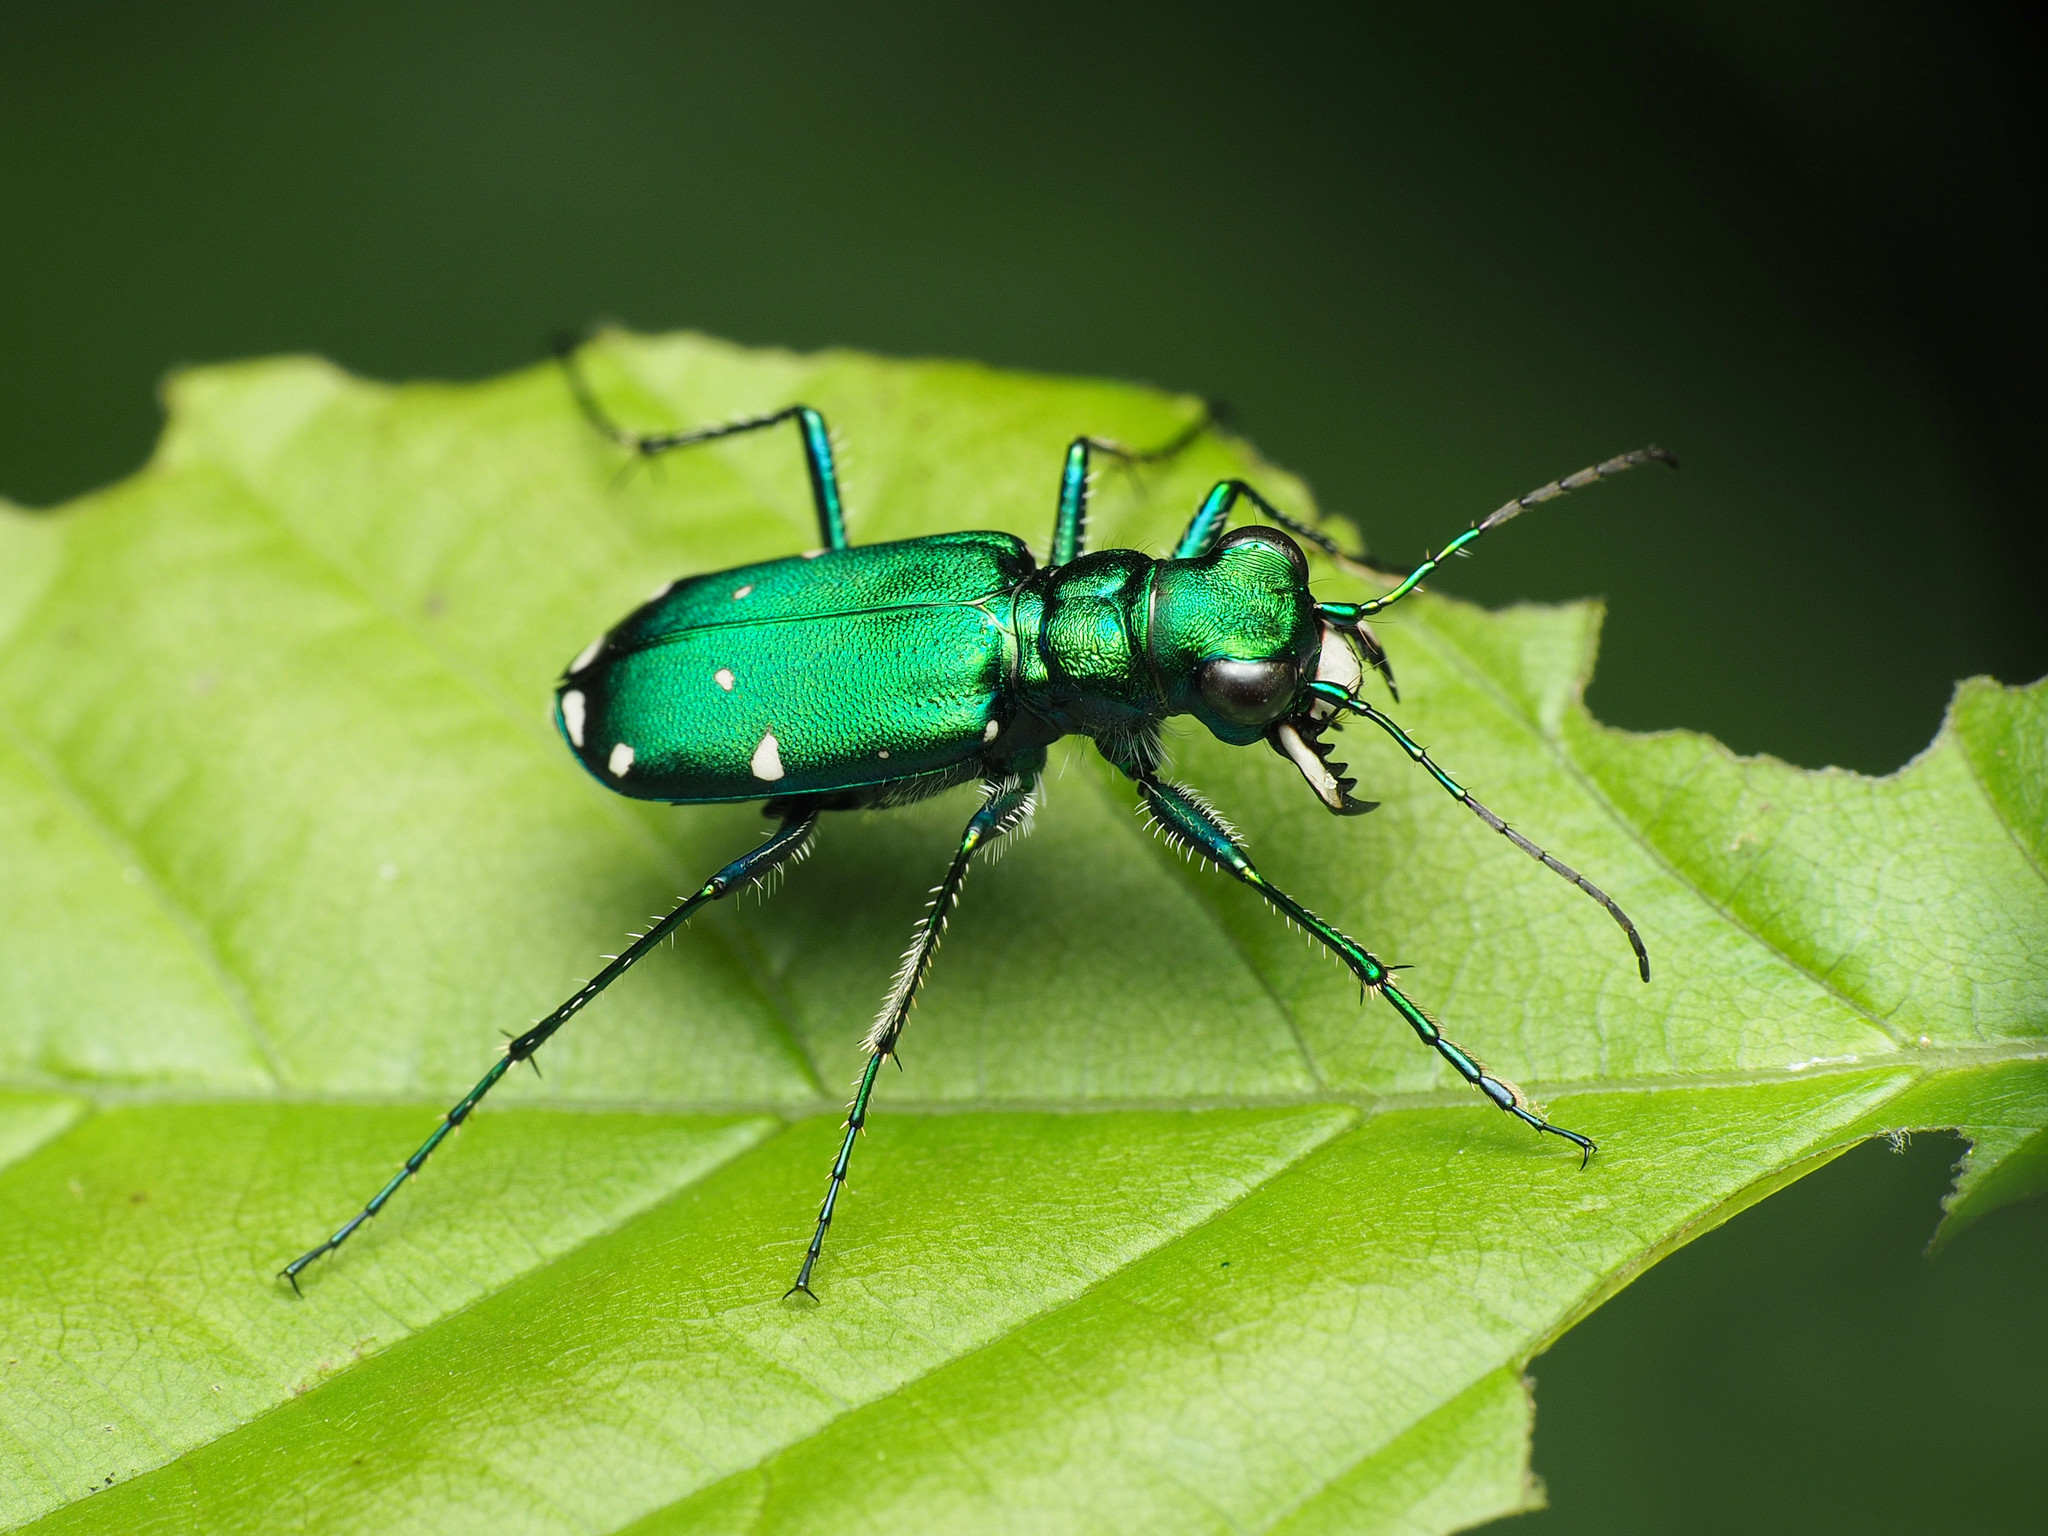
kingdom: Animalia
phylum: Arthropoda
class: Insecta
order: Coleoptera
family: Carabidae
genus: Cicindela
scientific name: Cicindela sexguttata
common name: Six-spotted tiger beetle
